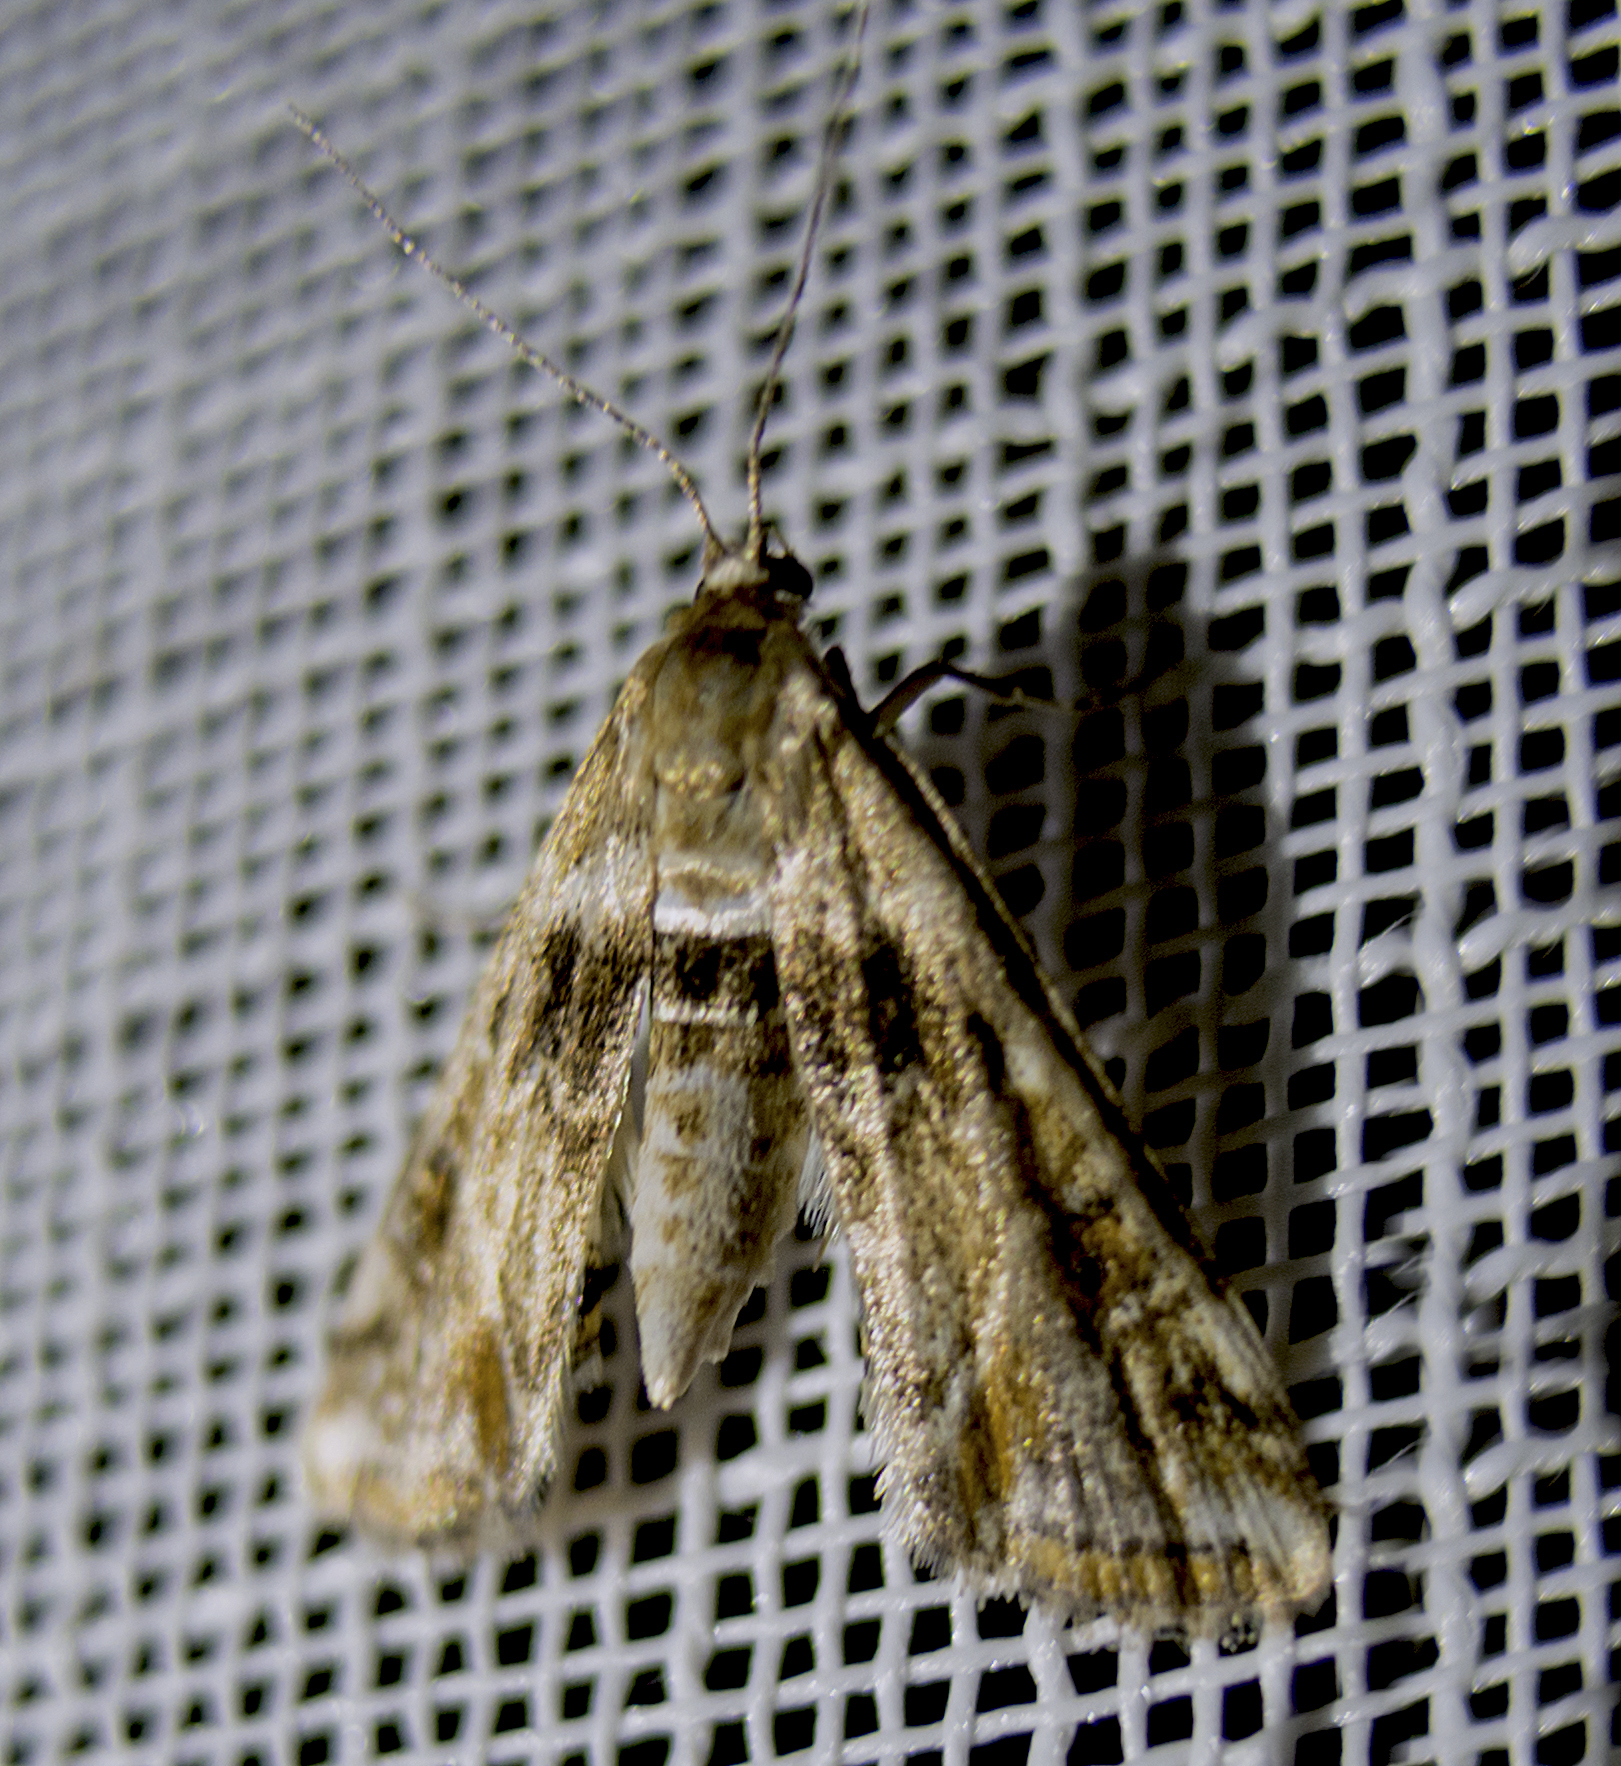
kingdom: Animalia
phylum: Arthropoda
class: Insecta
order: Lepidoptera
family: Crambidae
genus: Cataclysta
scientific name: Cataclysta lemnata
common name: Small china-mark
